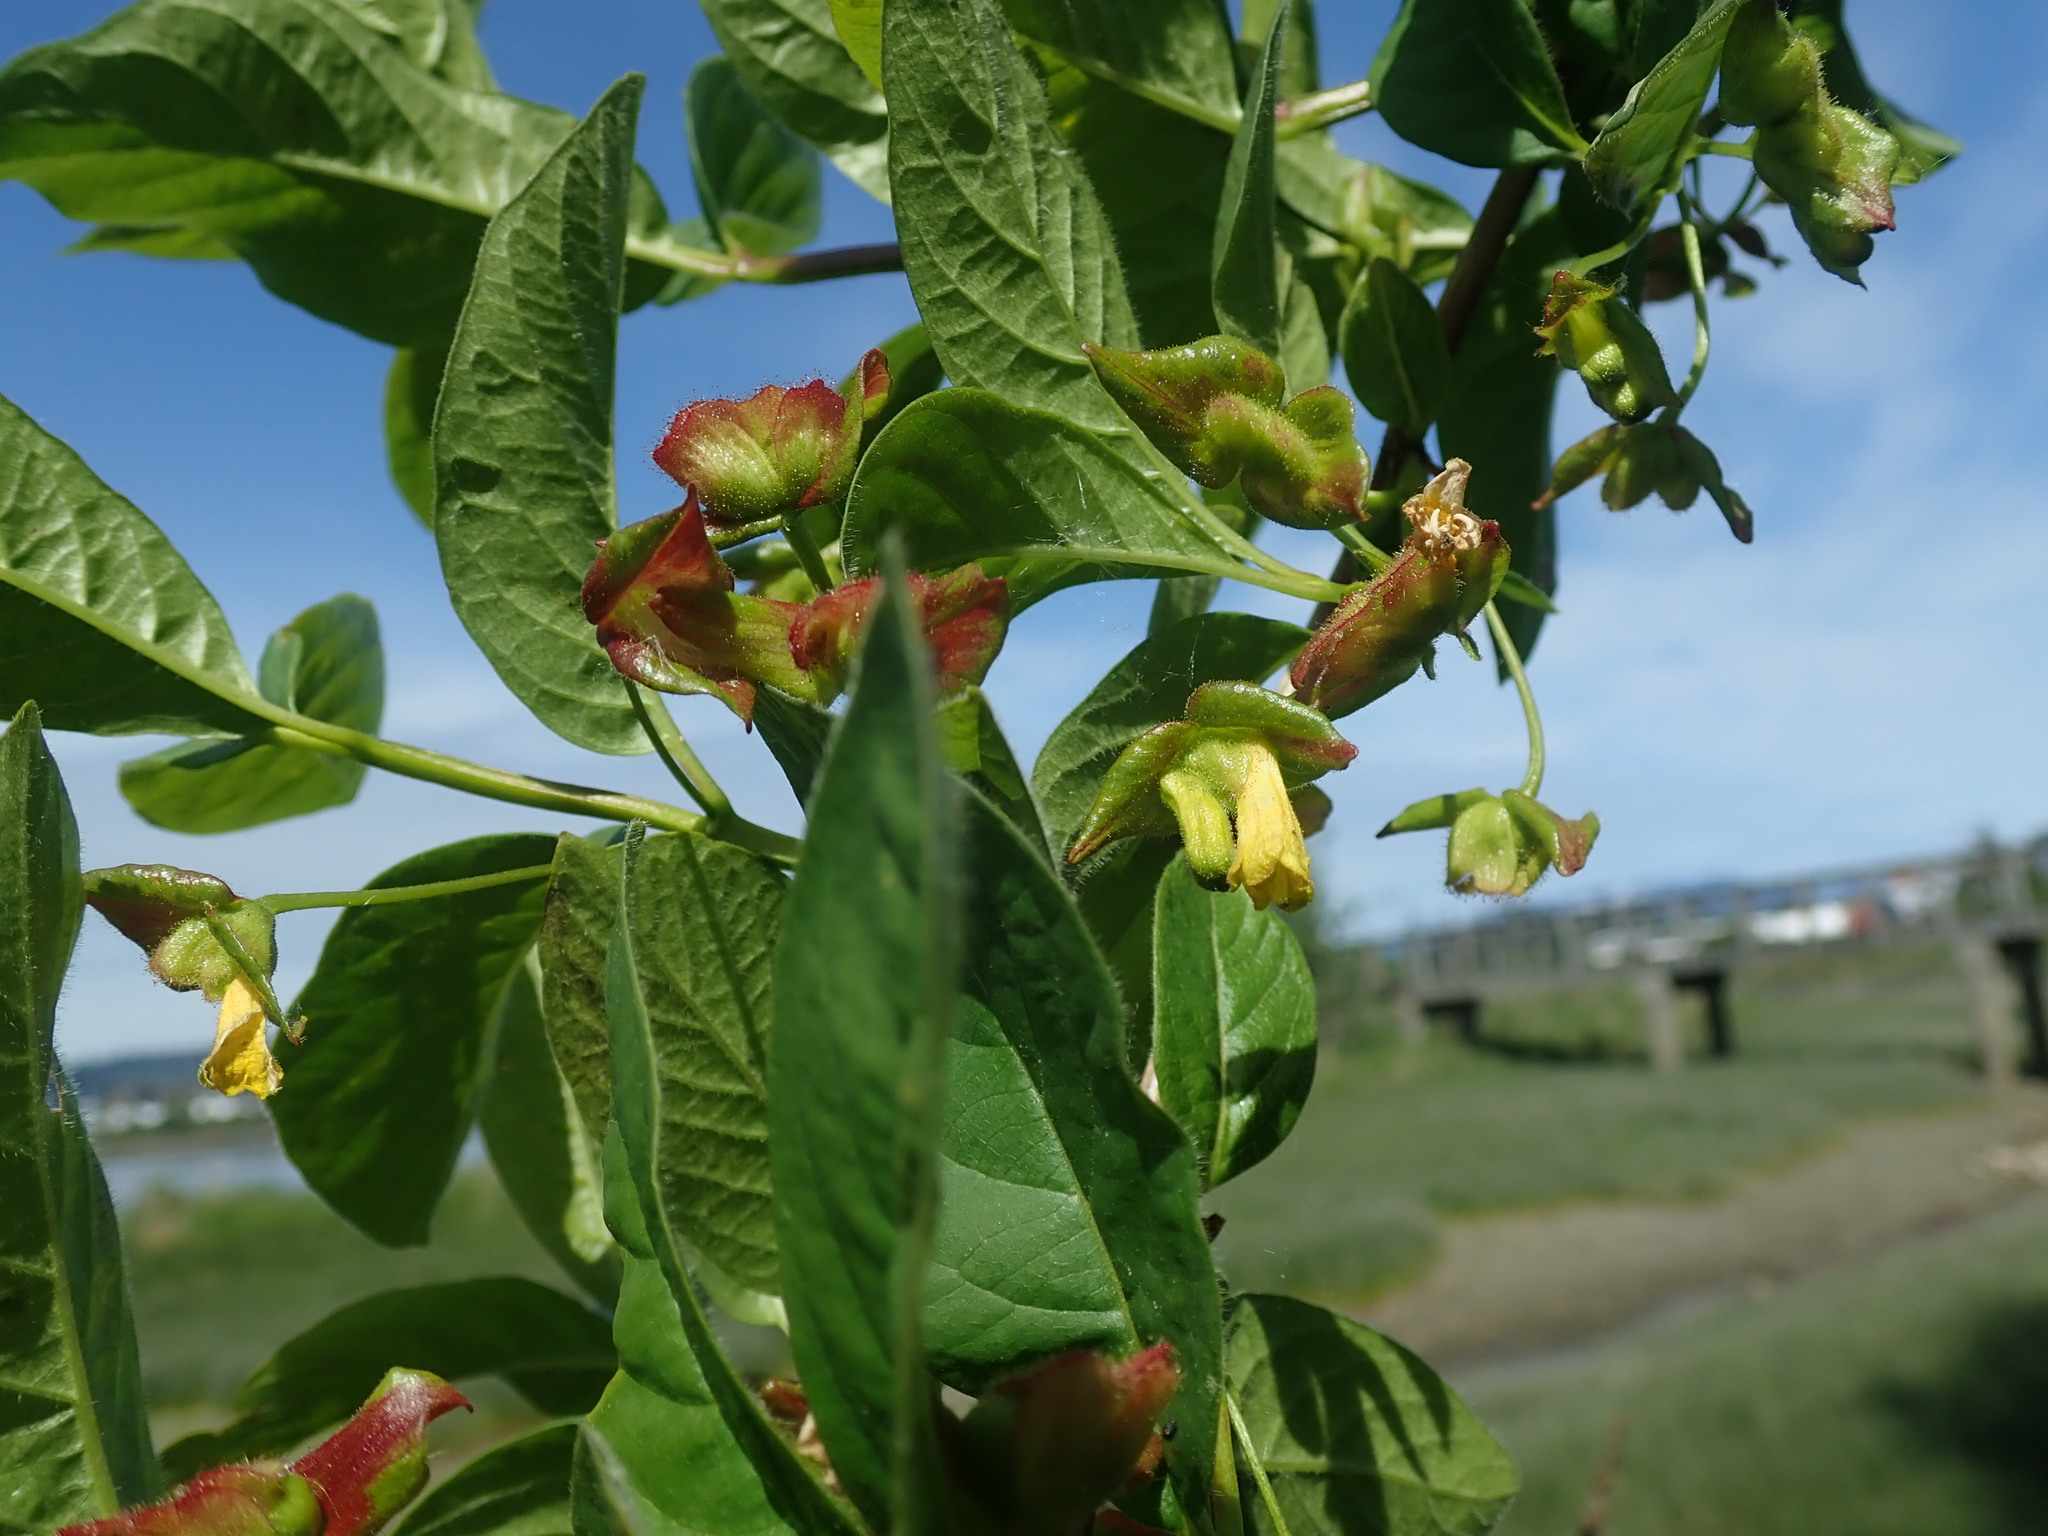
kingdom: Plantae
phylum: Tracheophyta
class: Magnoliopsida
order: Dipsacales
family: Caprifoliaceae
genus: Lonicera
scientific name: Lonicera involucrata
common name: Californian honeysuckle
